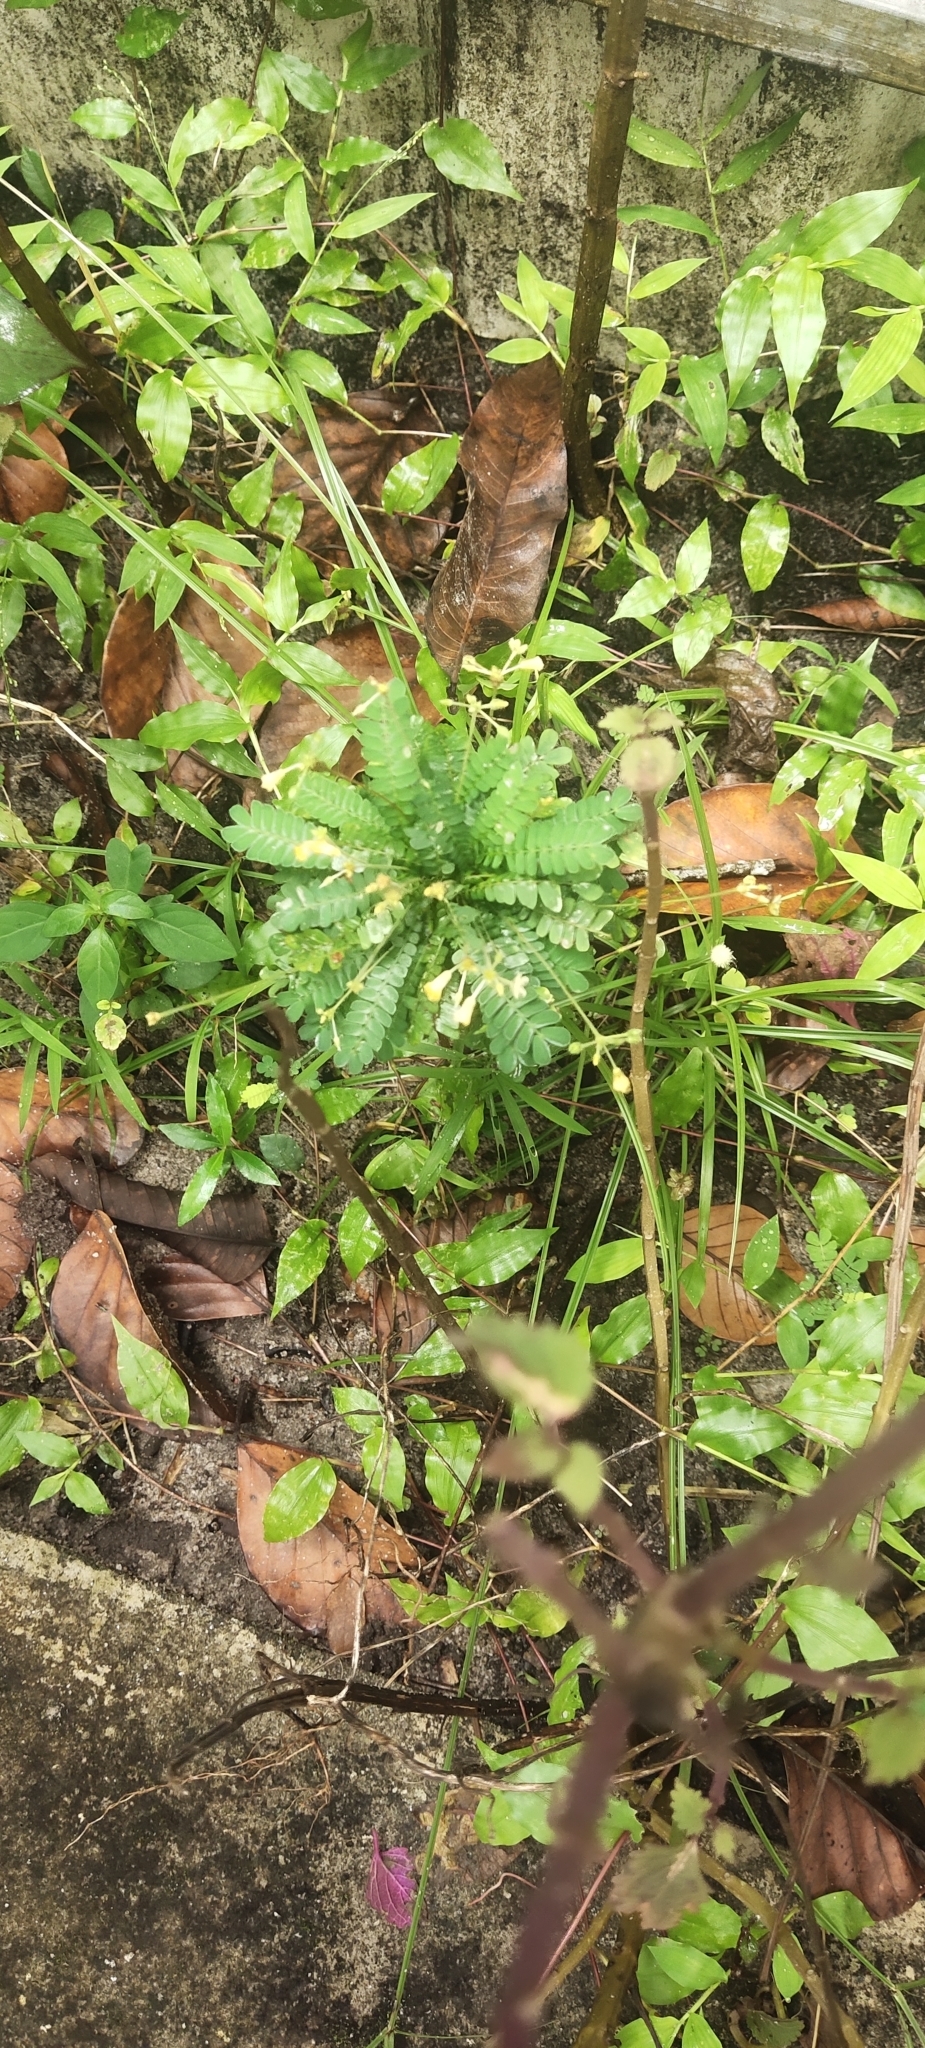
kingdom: Plantae
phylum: Tracheophyta
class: Magnoliopsida
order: Oxalidales
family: Oxalidaceae
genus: Biophytum
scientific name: Biophytum sensitivum
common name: Lifeplant
